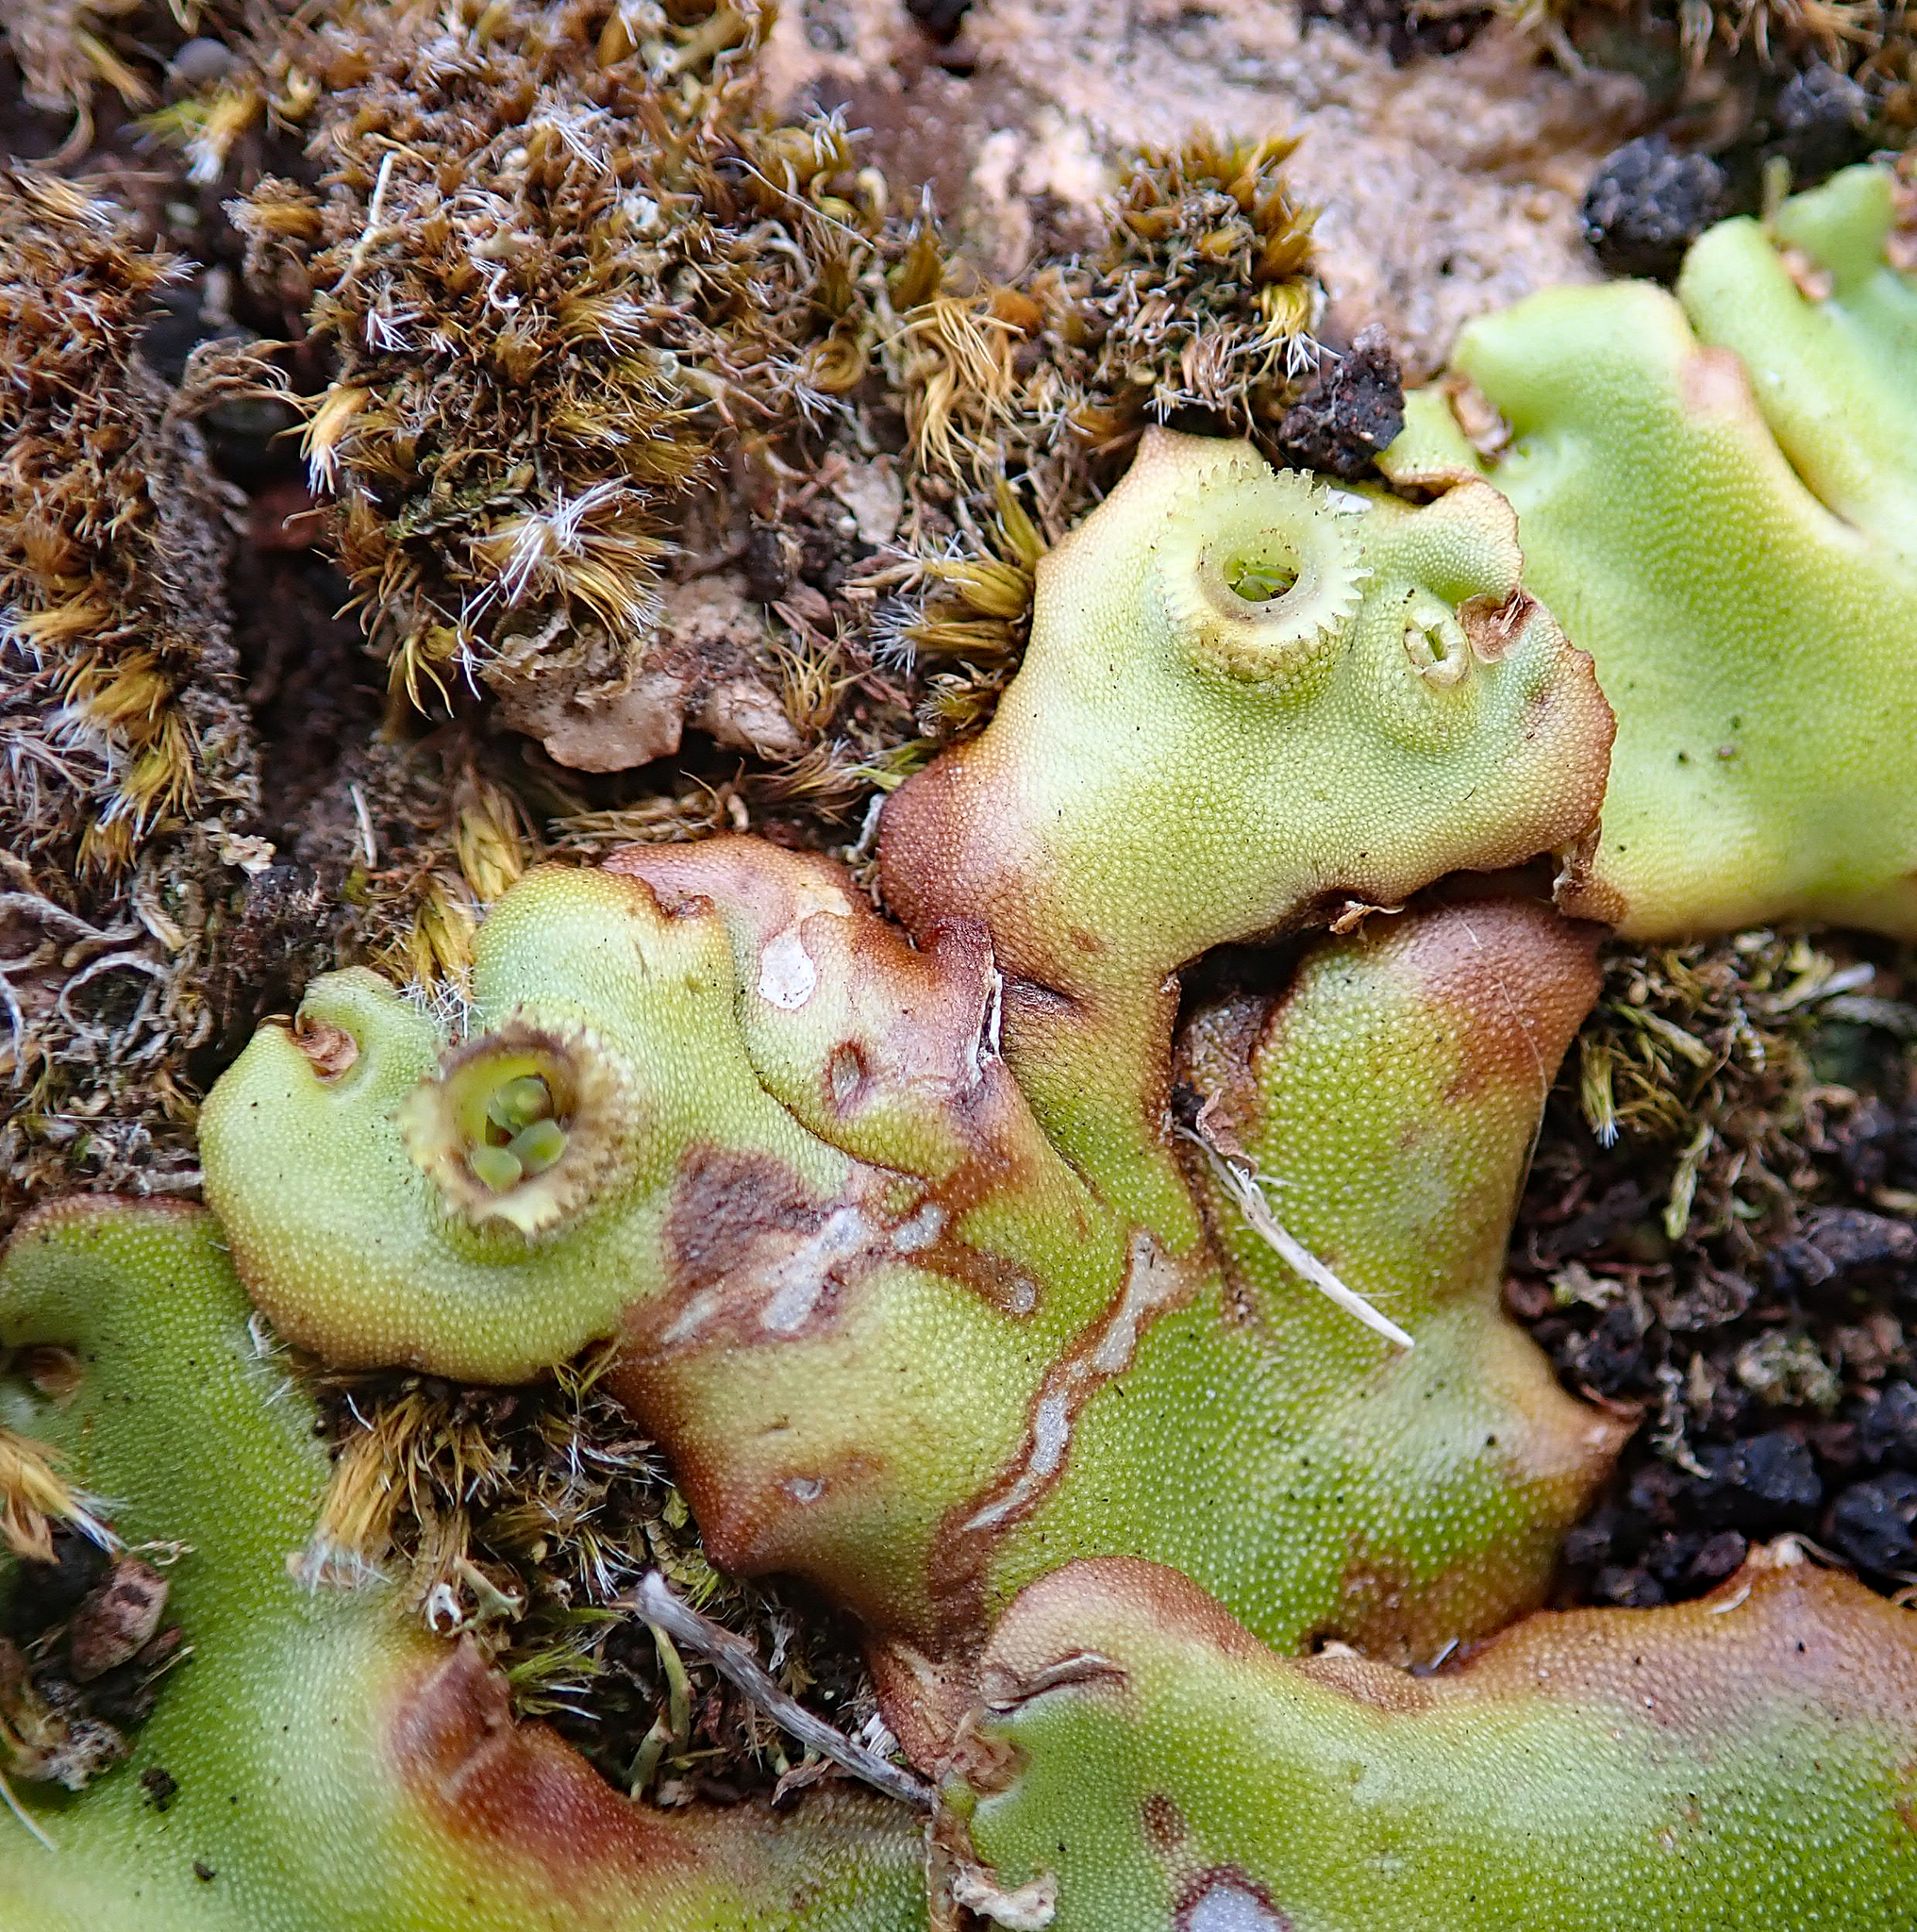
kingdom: Plantae
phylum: Marchantiophyta
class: Marchantiopsida
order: Marchantiales
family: Marchantiaceae
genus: Marchantia
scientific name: Marchantia berteroana
